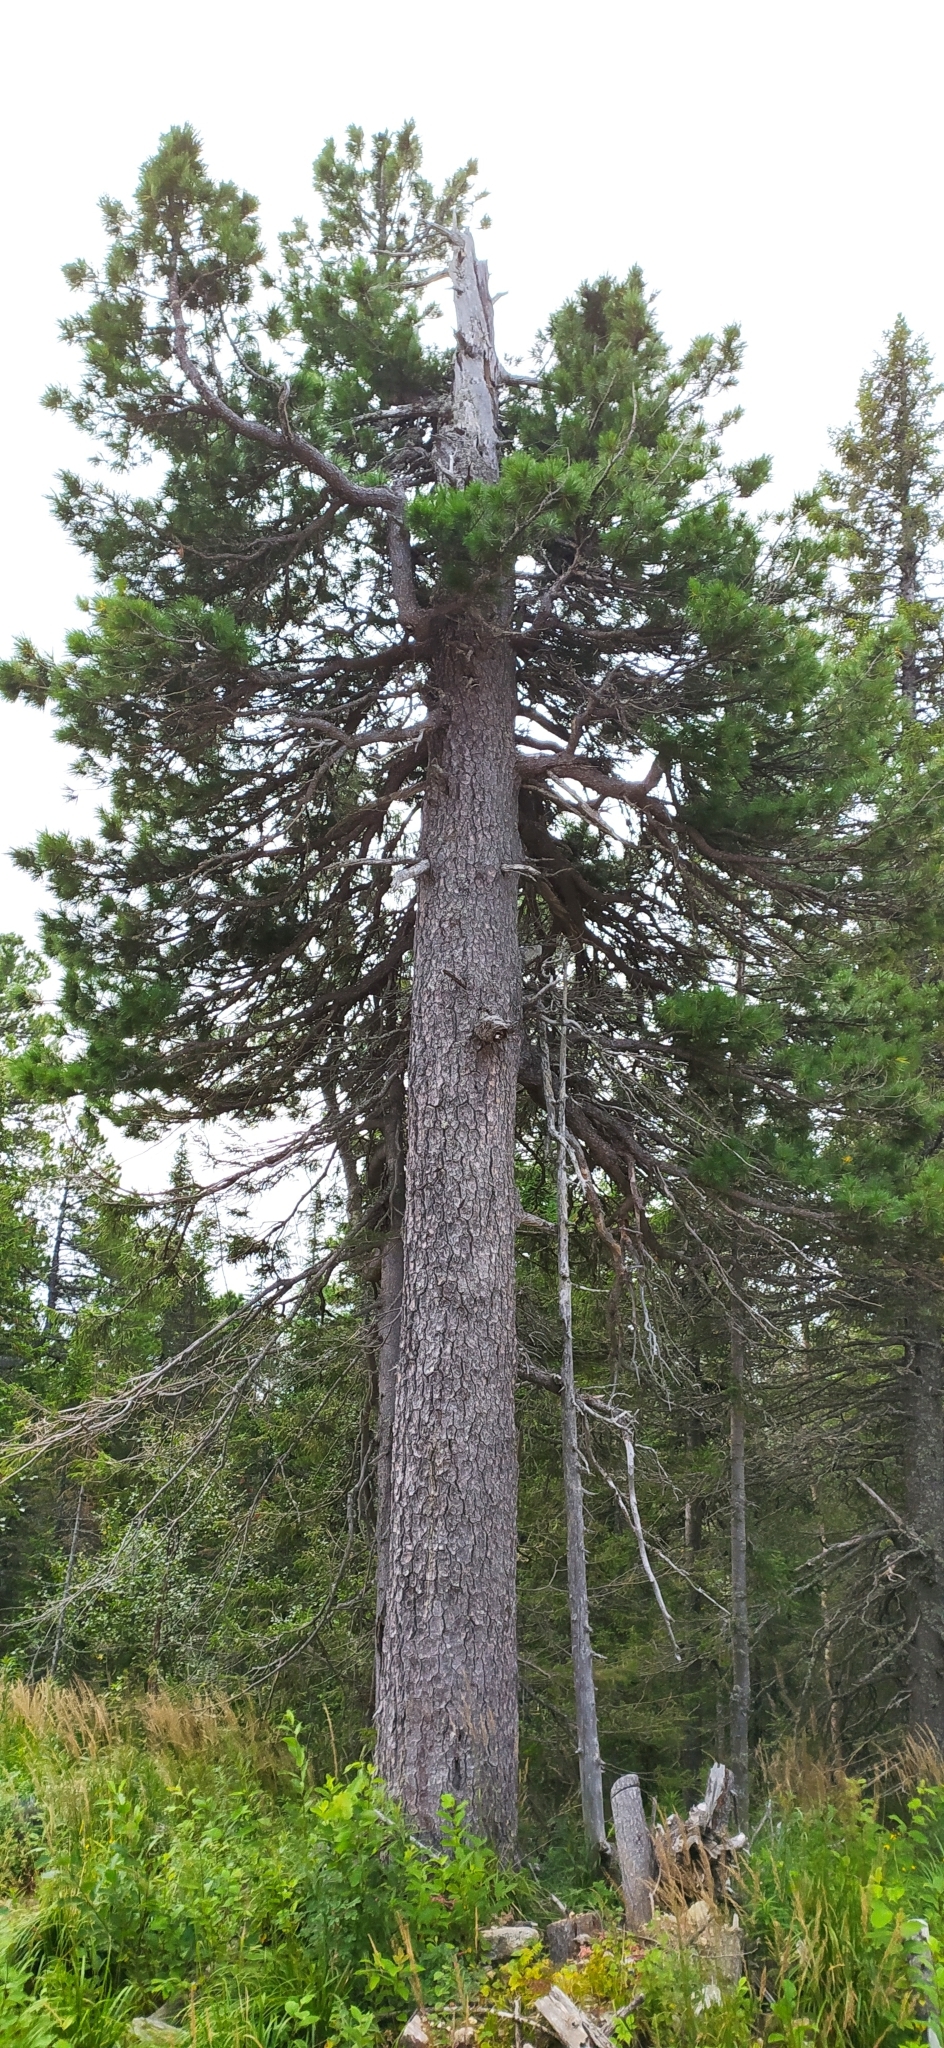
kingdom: Plantae
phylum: Tracheophyta
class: Pinopsida
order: Pinales
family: Pinaceae
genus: Pinus
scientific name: Pinus sibirica
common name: Siberian pine
